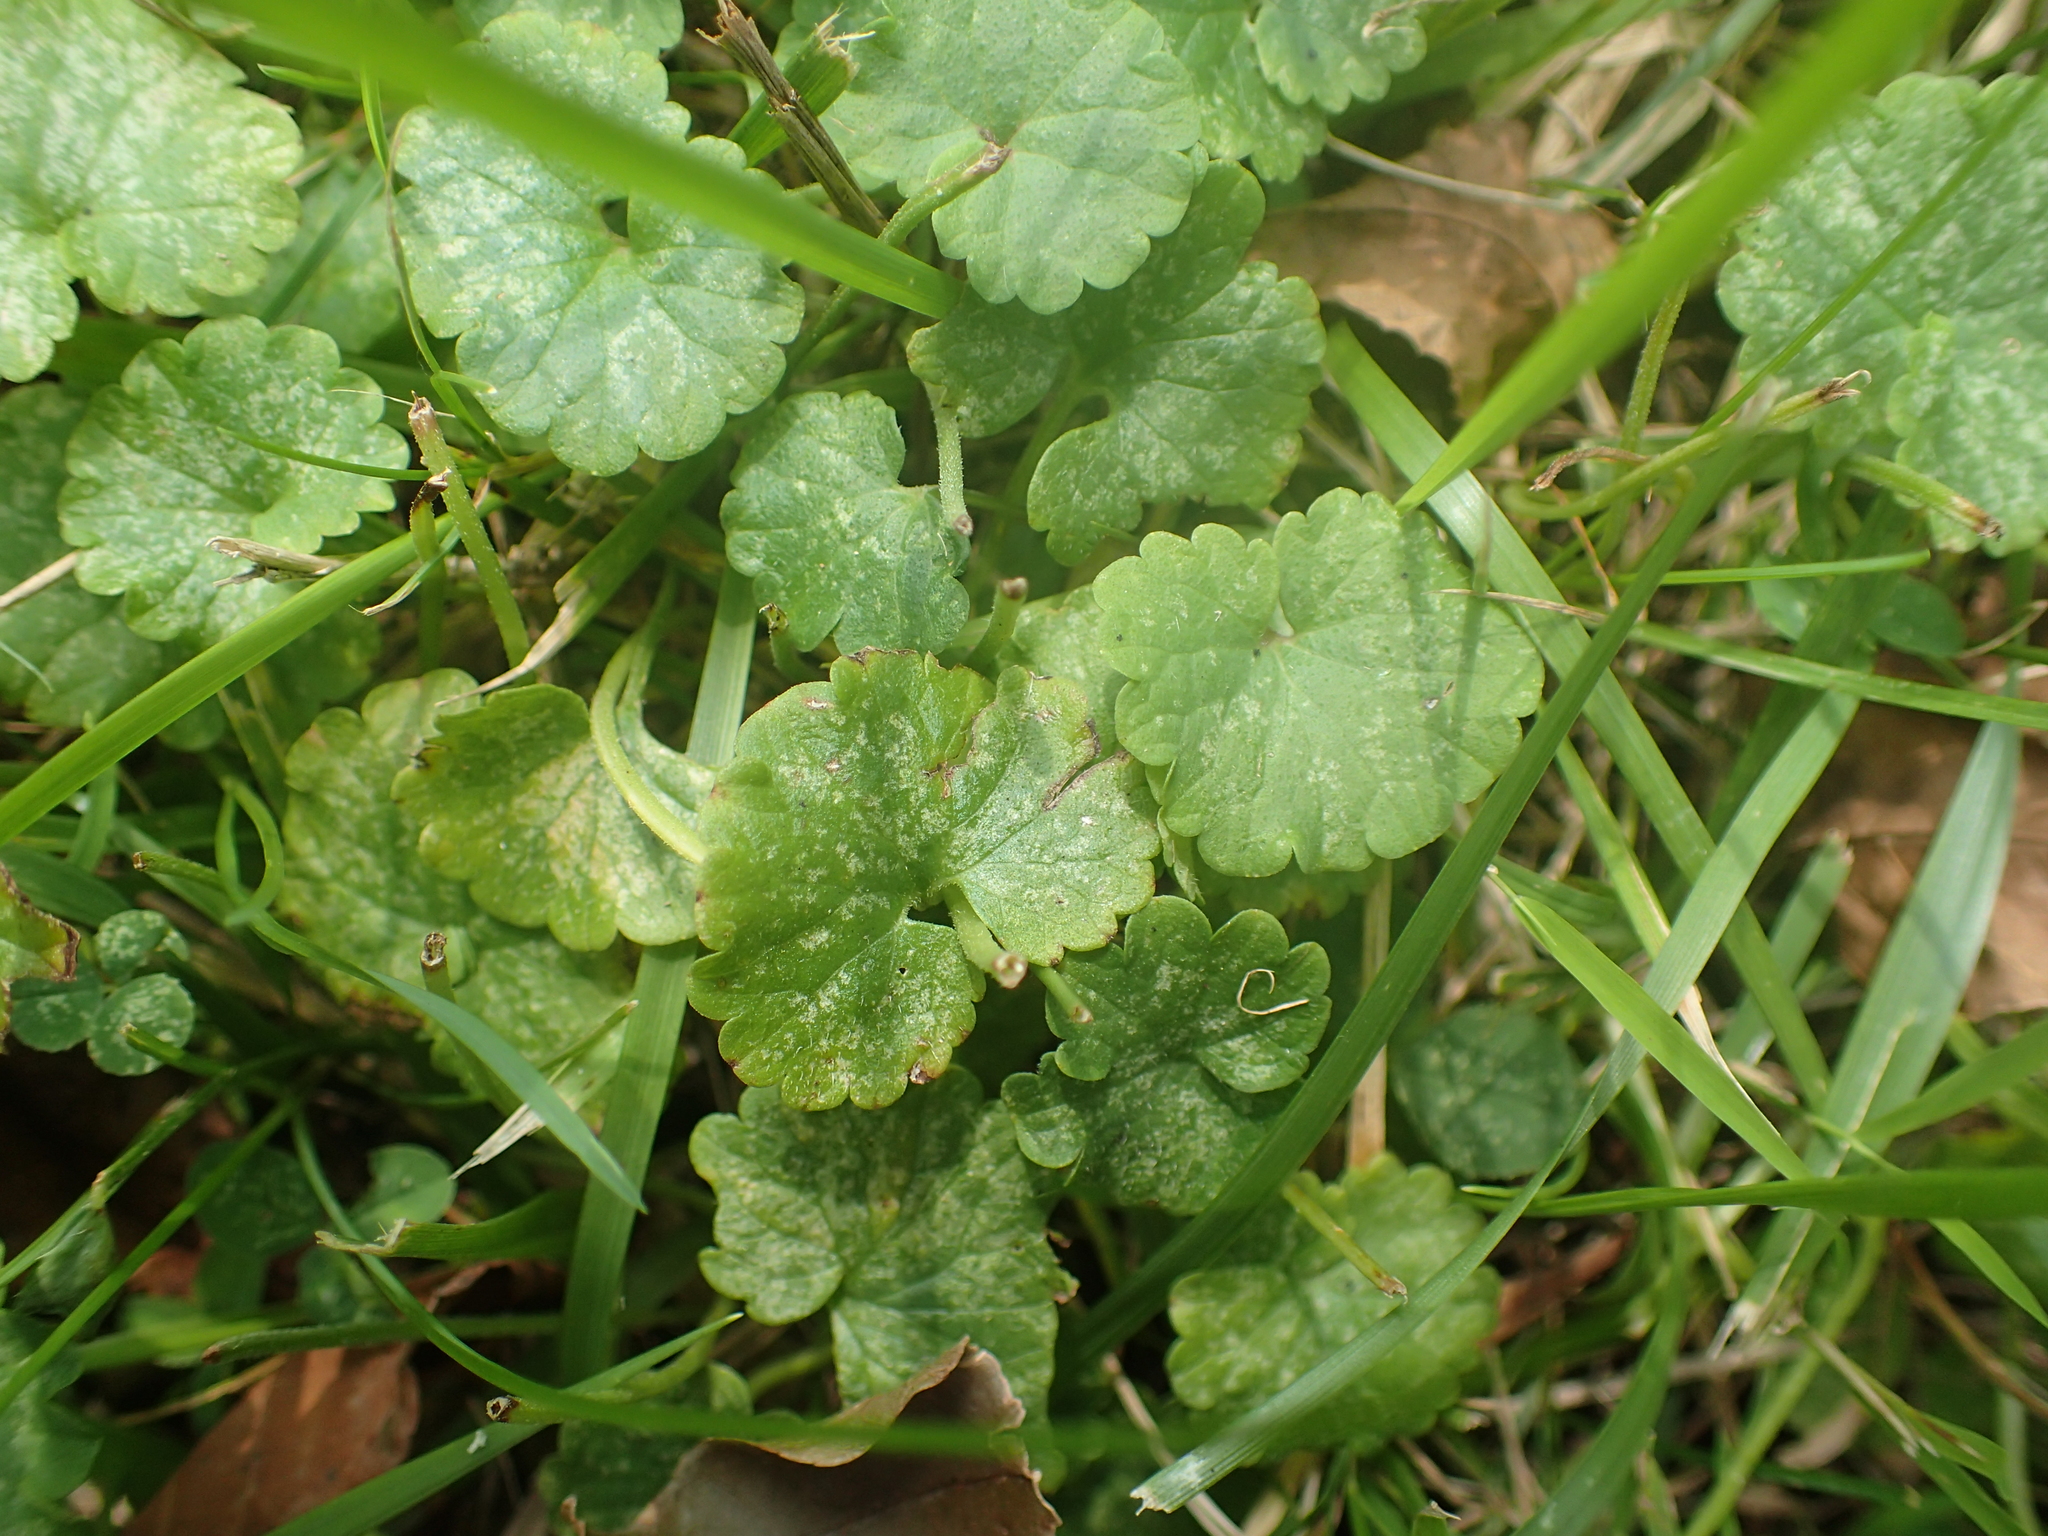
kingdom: Plantae
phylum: Tracheophyta
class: Magnoliopsida
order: Lamiales
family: Lamiaceae
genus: Glechoma
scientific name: Glechoma hederacea
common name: Ground ivy
